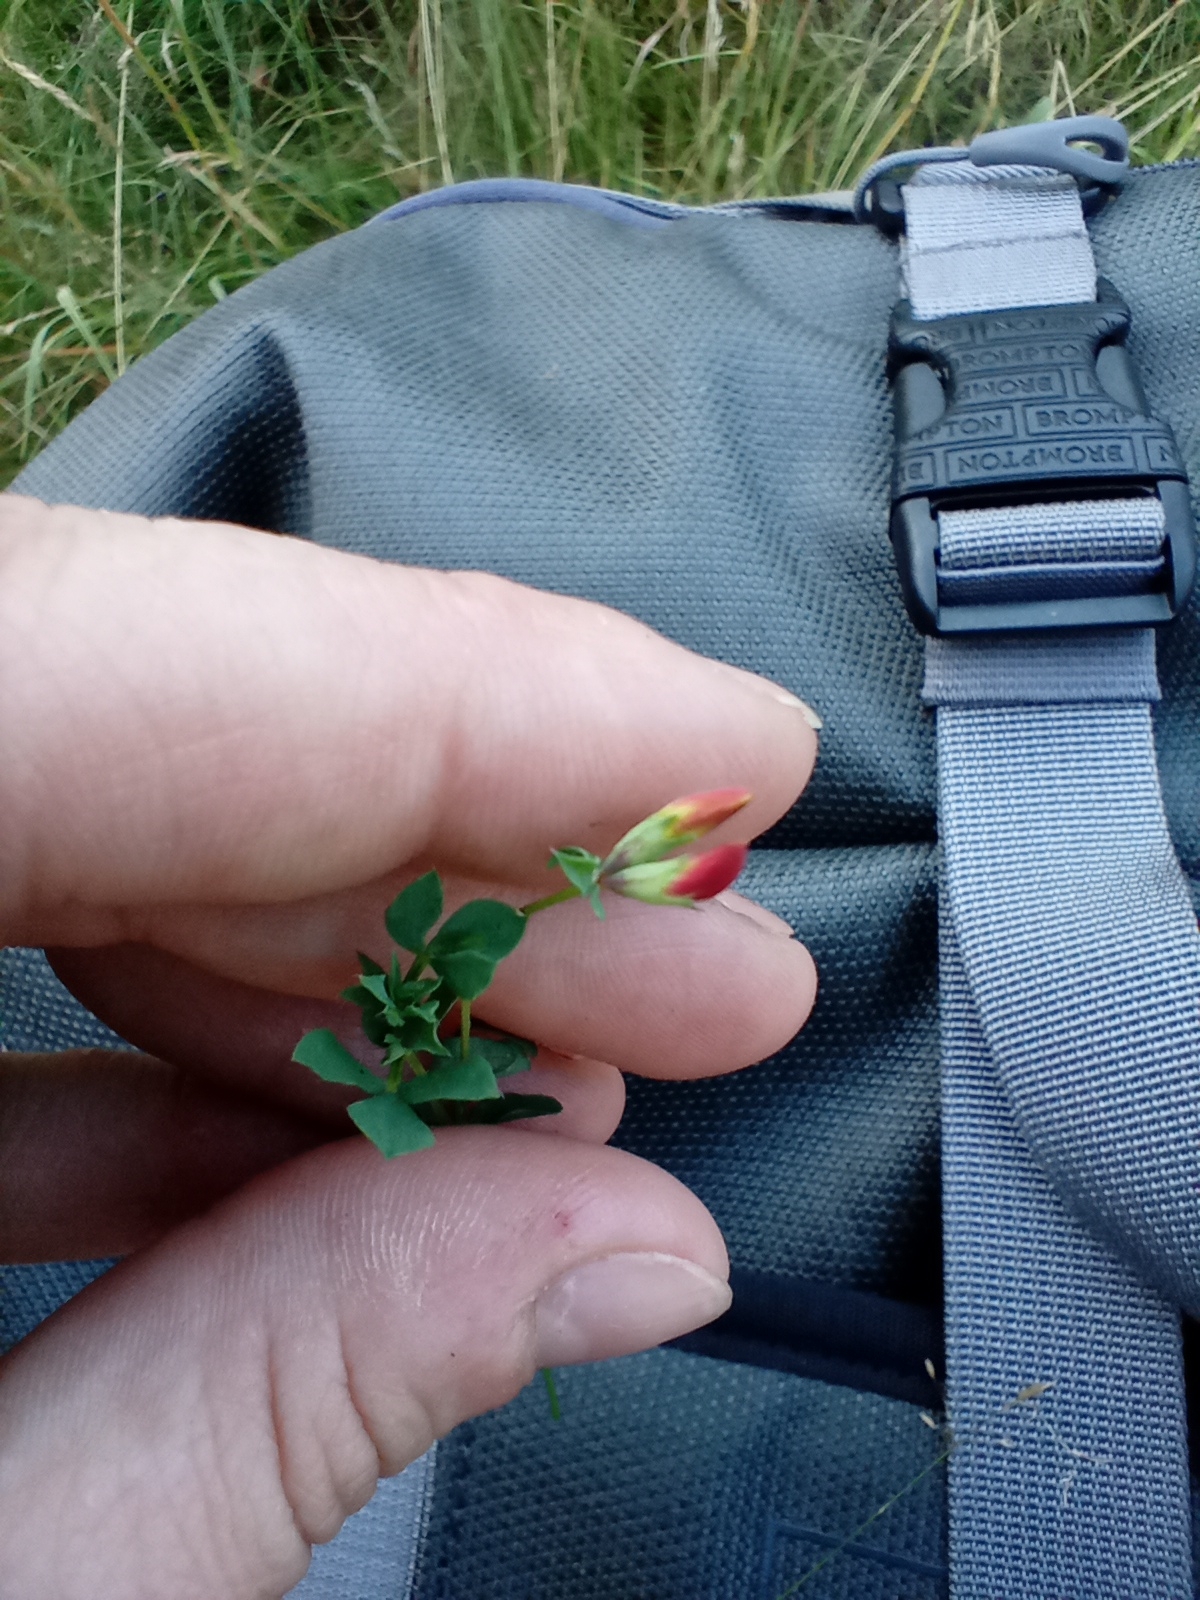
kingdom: Plantae
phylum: Tracheophyta
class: Magnoliopsida
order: Fabales
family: Fabaceae
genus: Lotus
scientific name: Lotus corniculatus
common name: Common bird's-foot-trefoil
